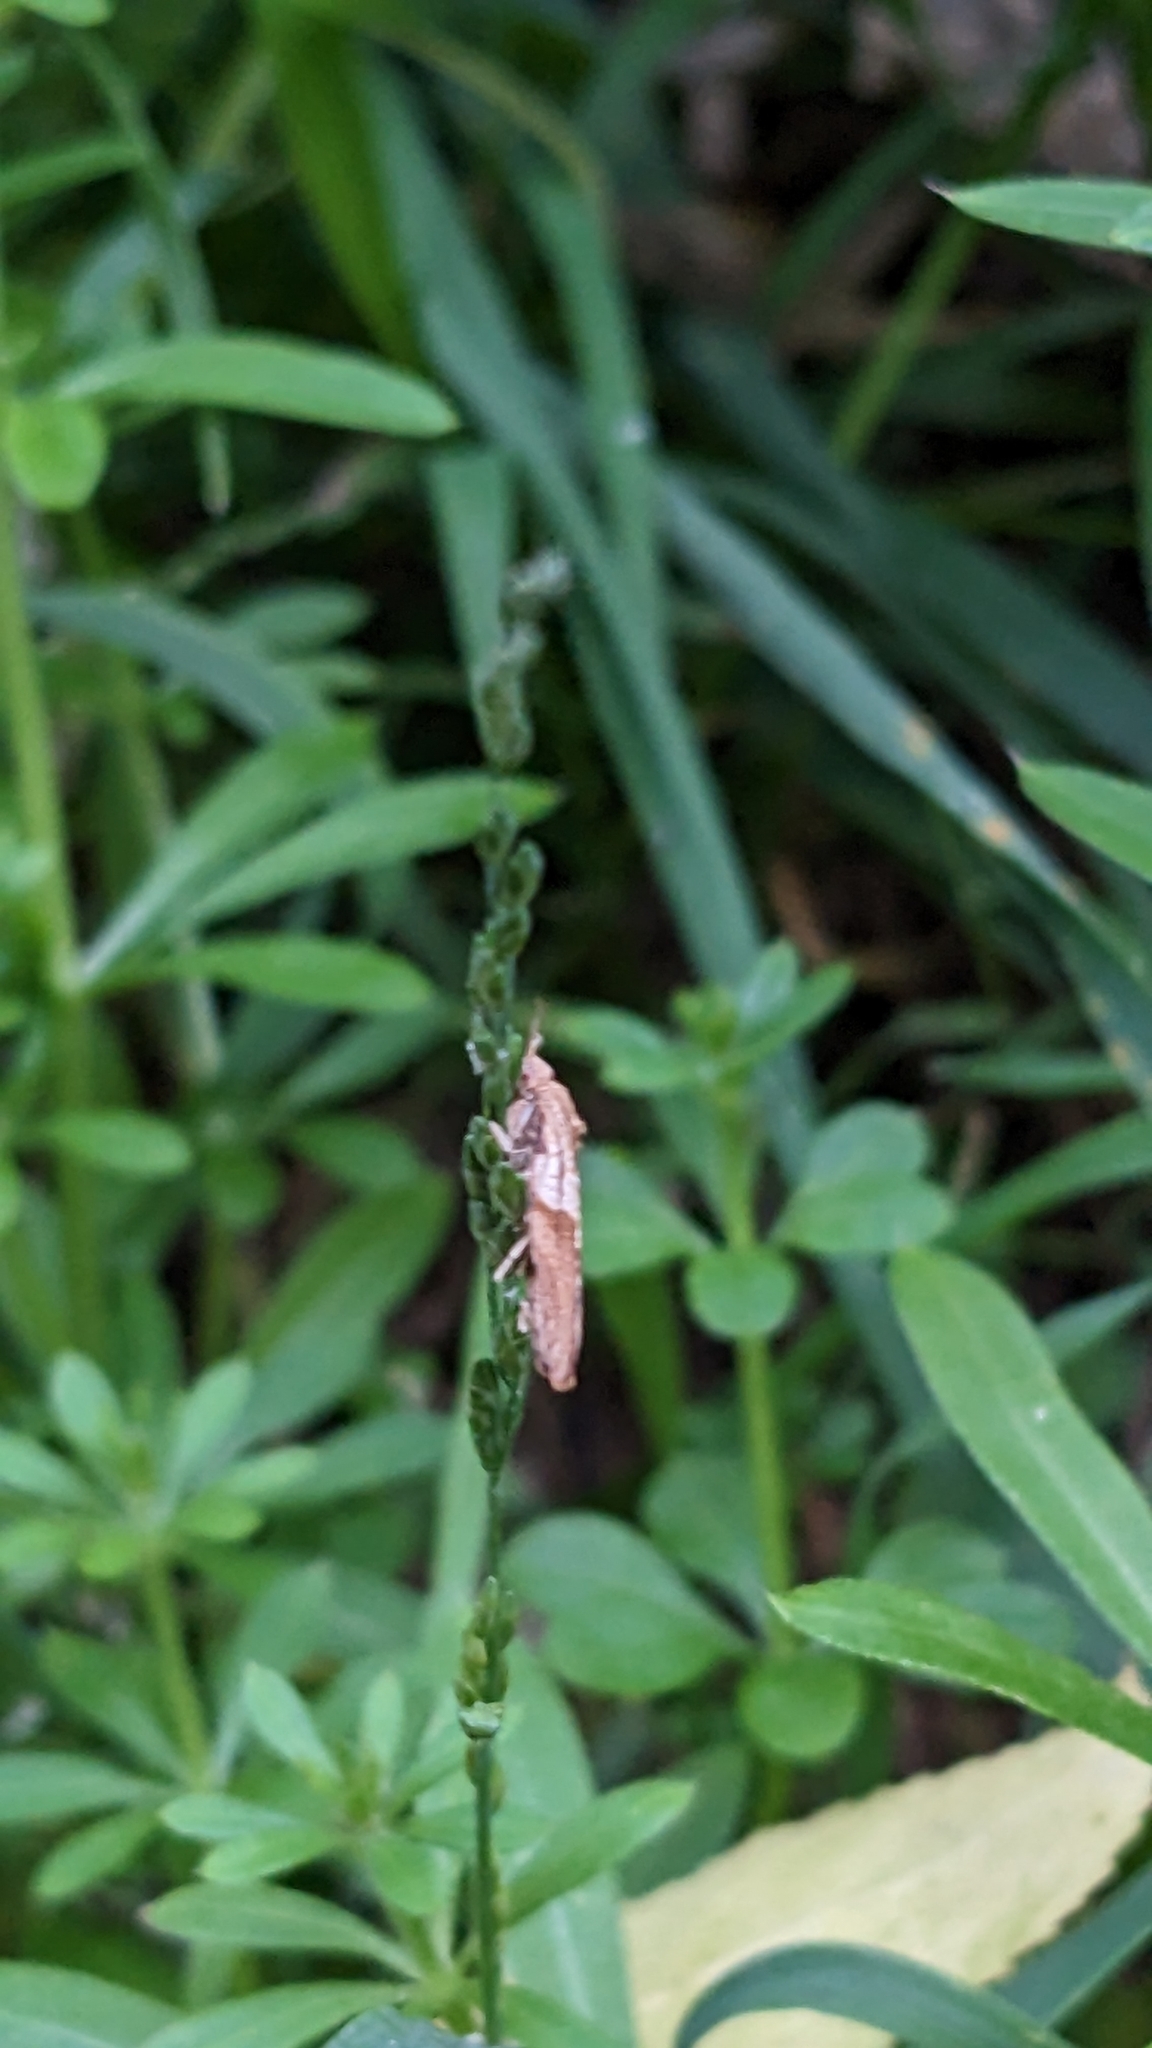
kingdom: Animalia
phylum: Arthropoda
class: Insecta
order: Lepidoptera
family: Tortricidae
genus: Epiphyas
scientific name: Epiphyas postvittana
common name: Light brown apple moth
